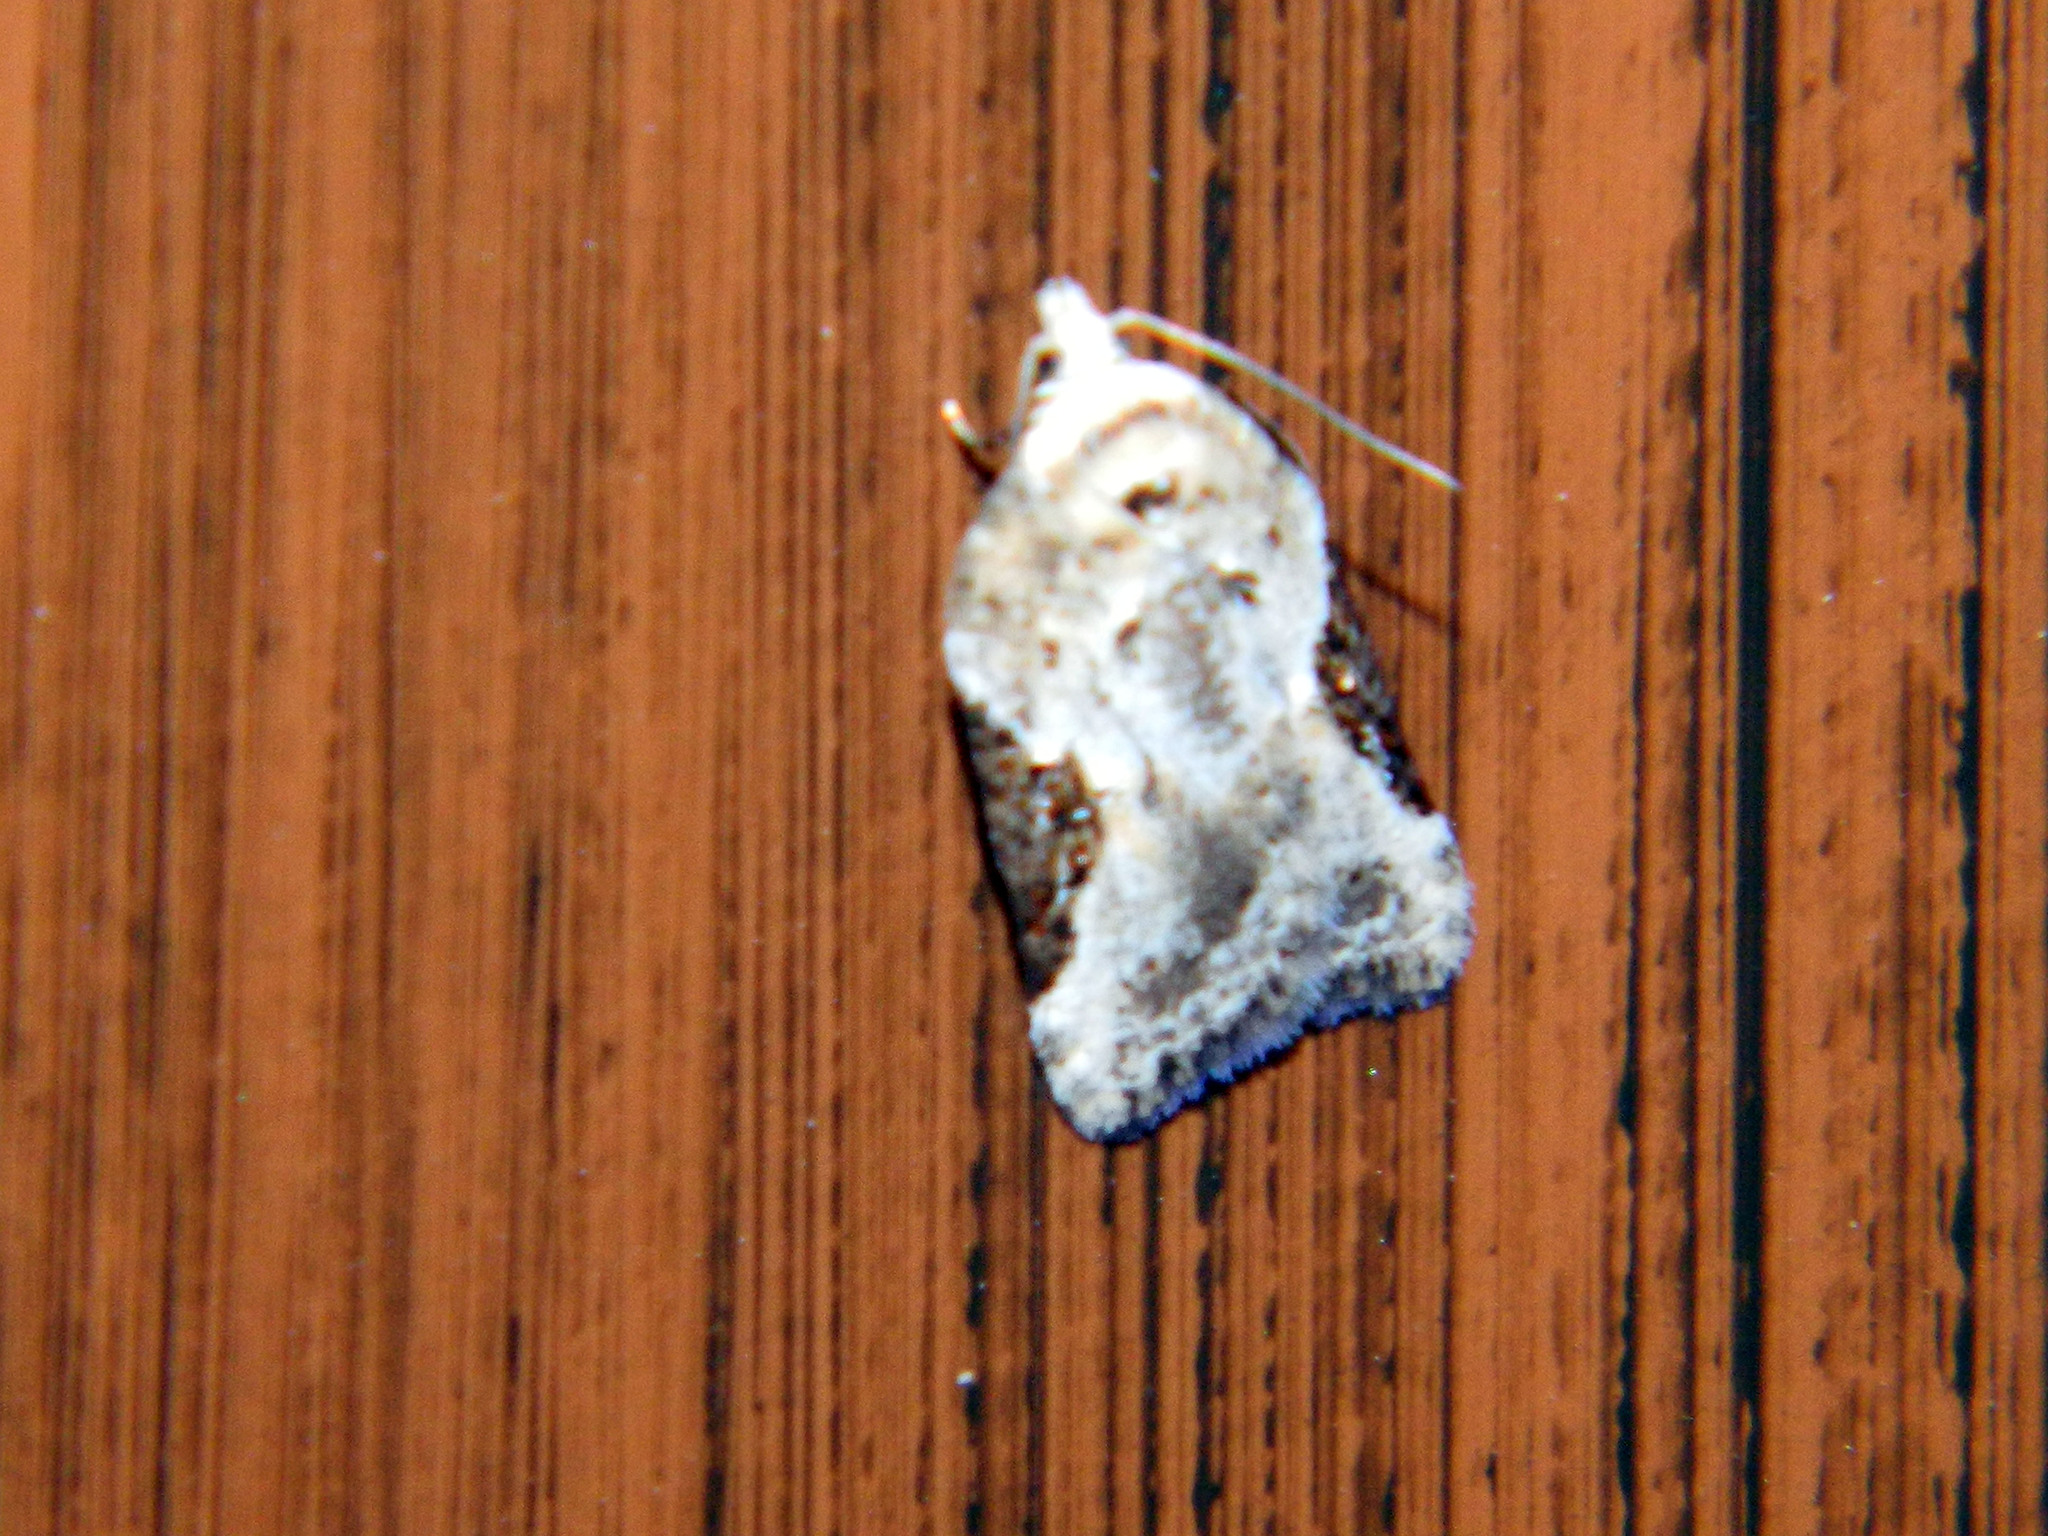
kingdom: Animalia
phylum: Arthropoda
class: Insecta
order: Lepidoptera
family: Tortricidae
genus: Acleris
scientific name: Acleris forbesana
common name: Forbes' acleris moth
